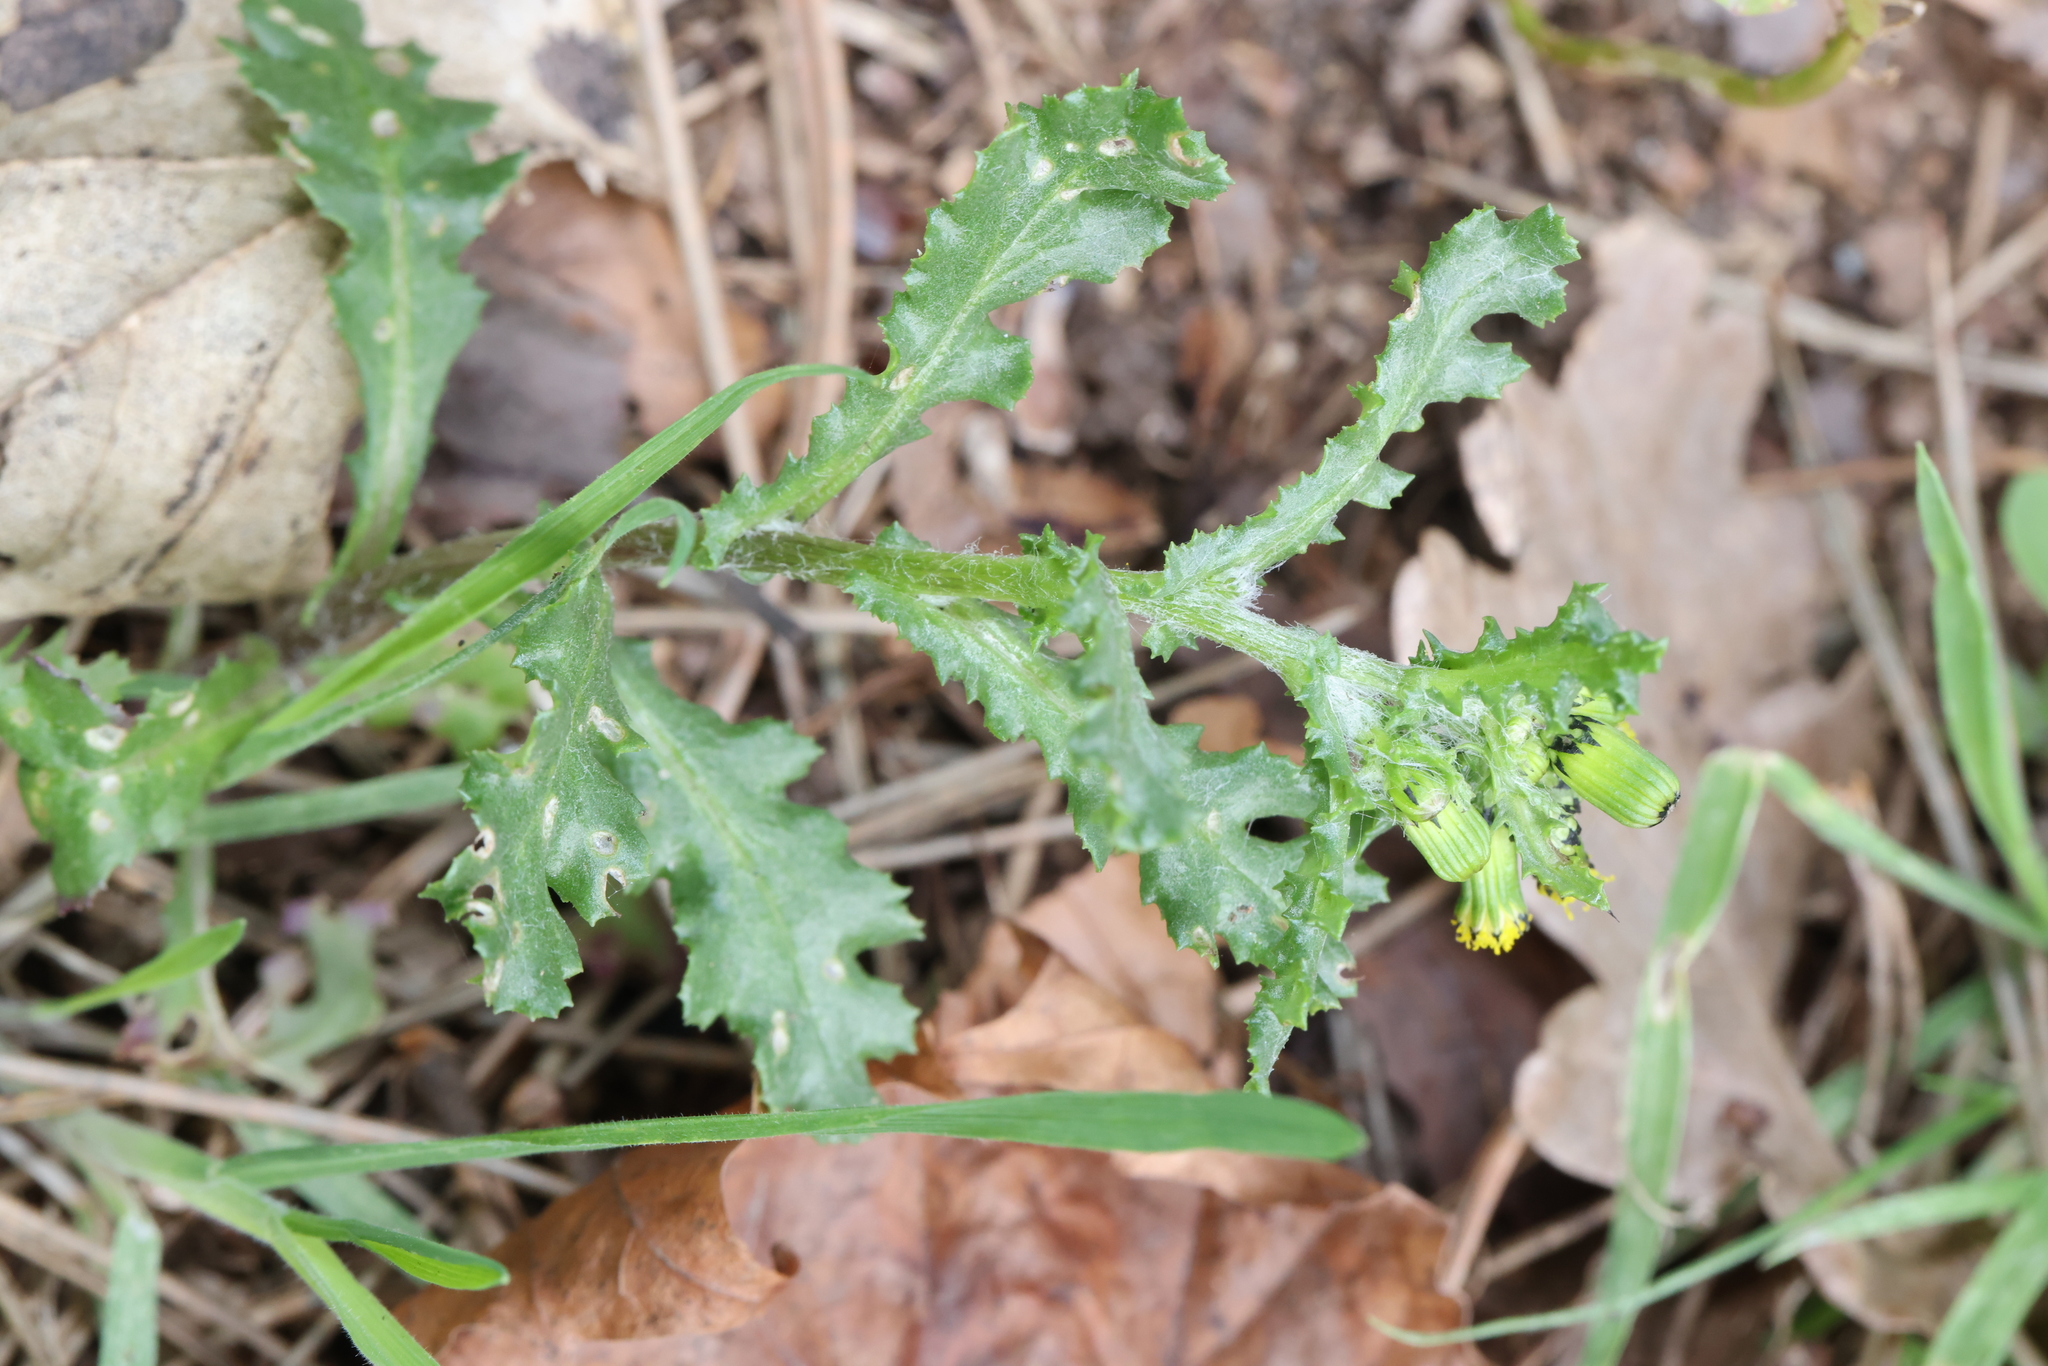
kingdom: Plantae
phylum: Tracheophyta
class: Magnoliopsida
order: Asterales
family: Asteraceae
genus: Senecio
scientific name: Senecio vulgaris
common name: Old-man-in-the-spring
